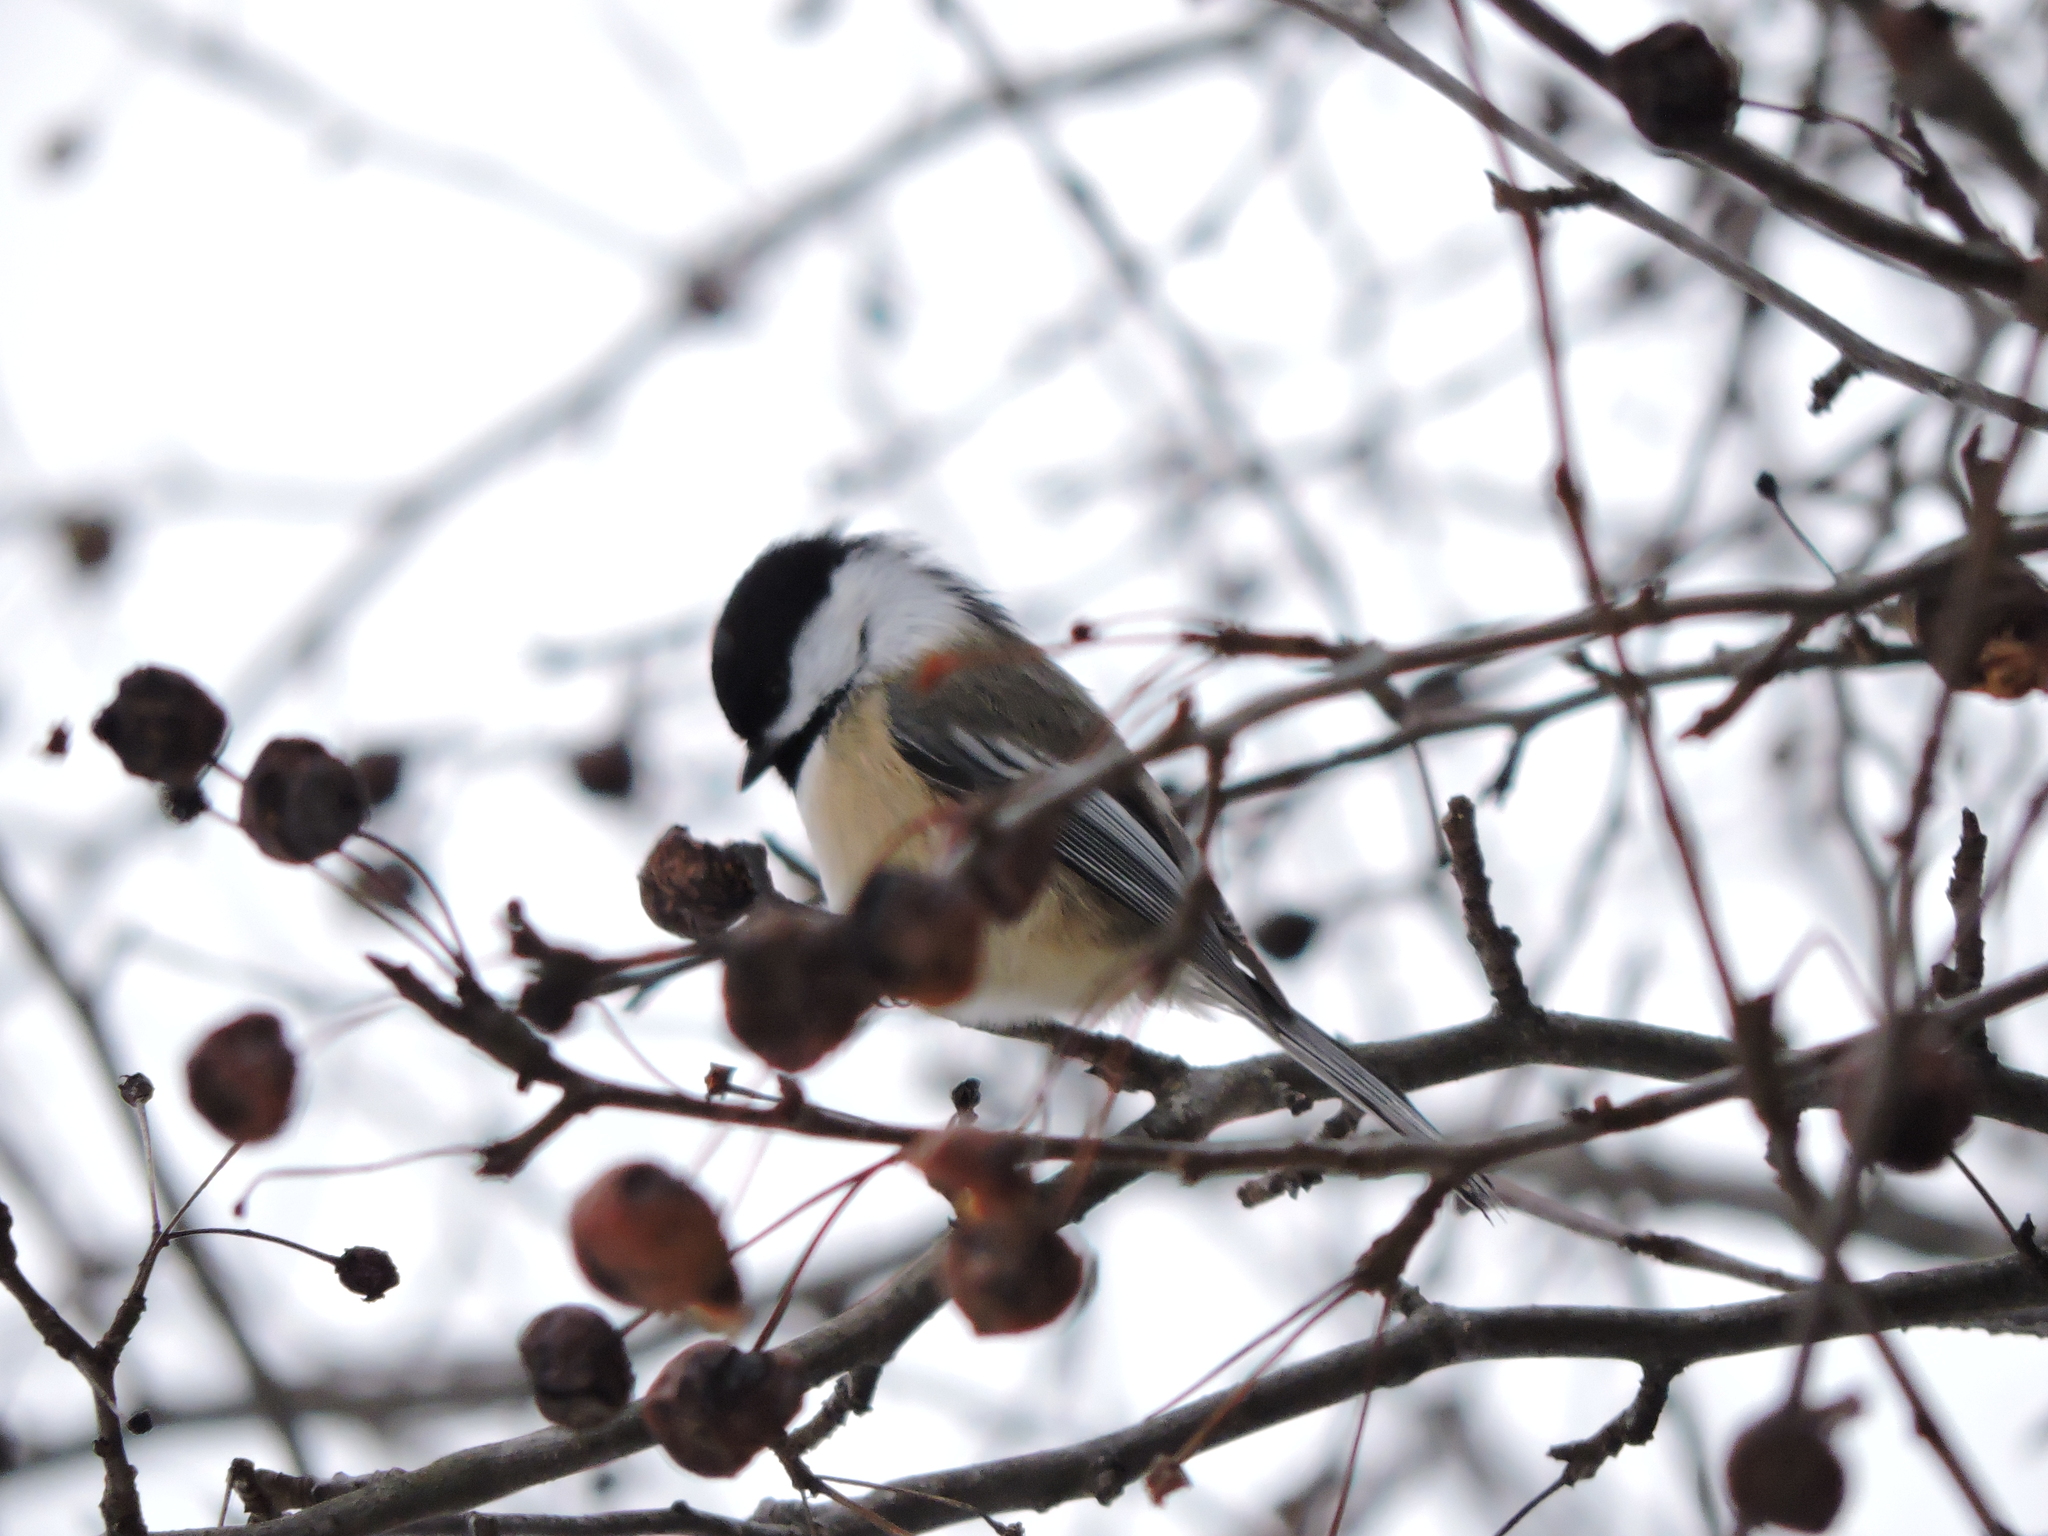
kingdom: Animalia
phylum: Chordata
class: Aves
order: Passeriformes
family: Paridae
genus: Poecile
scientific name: Poecile atricapillus
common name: Black-capped chickadee
